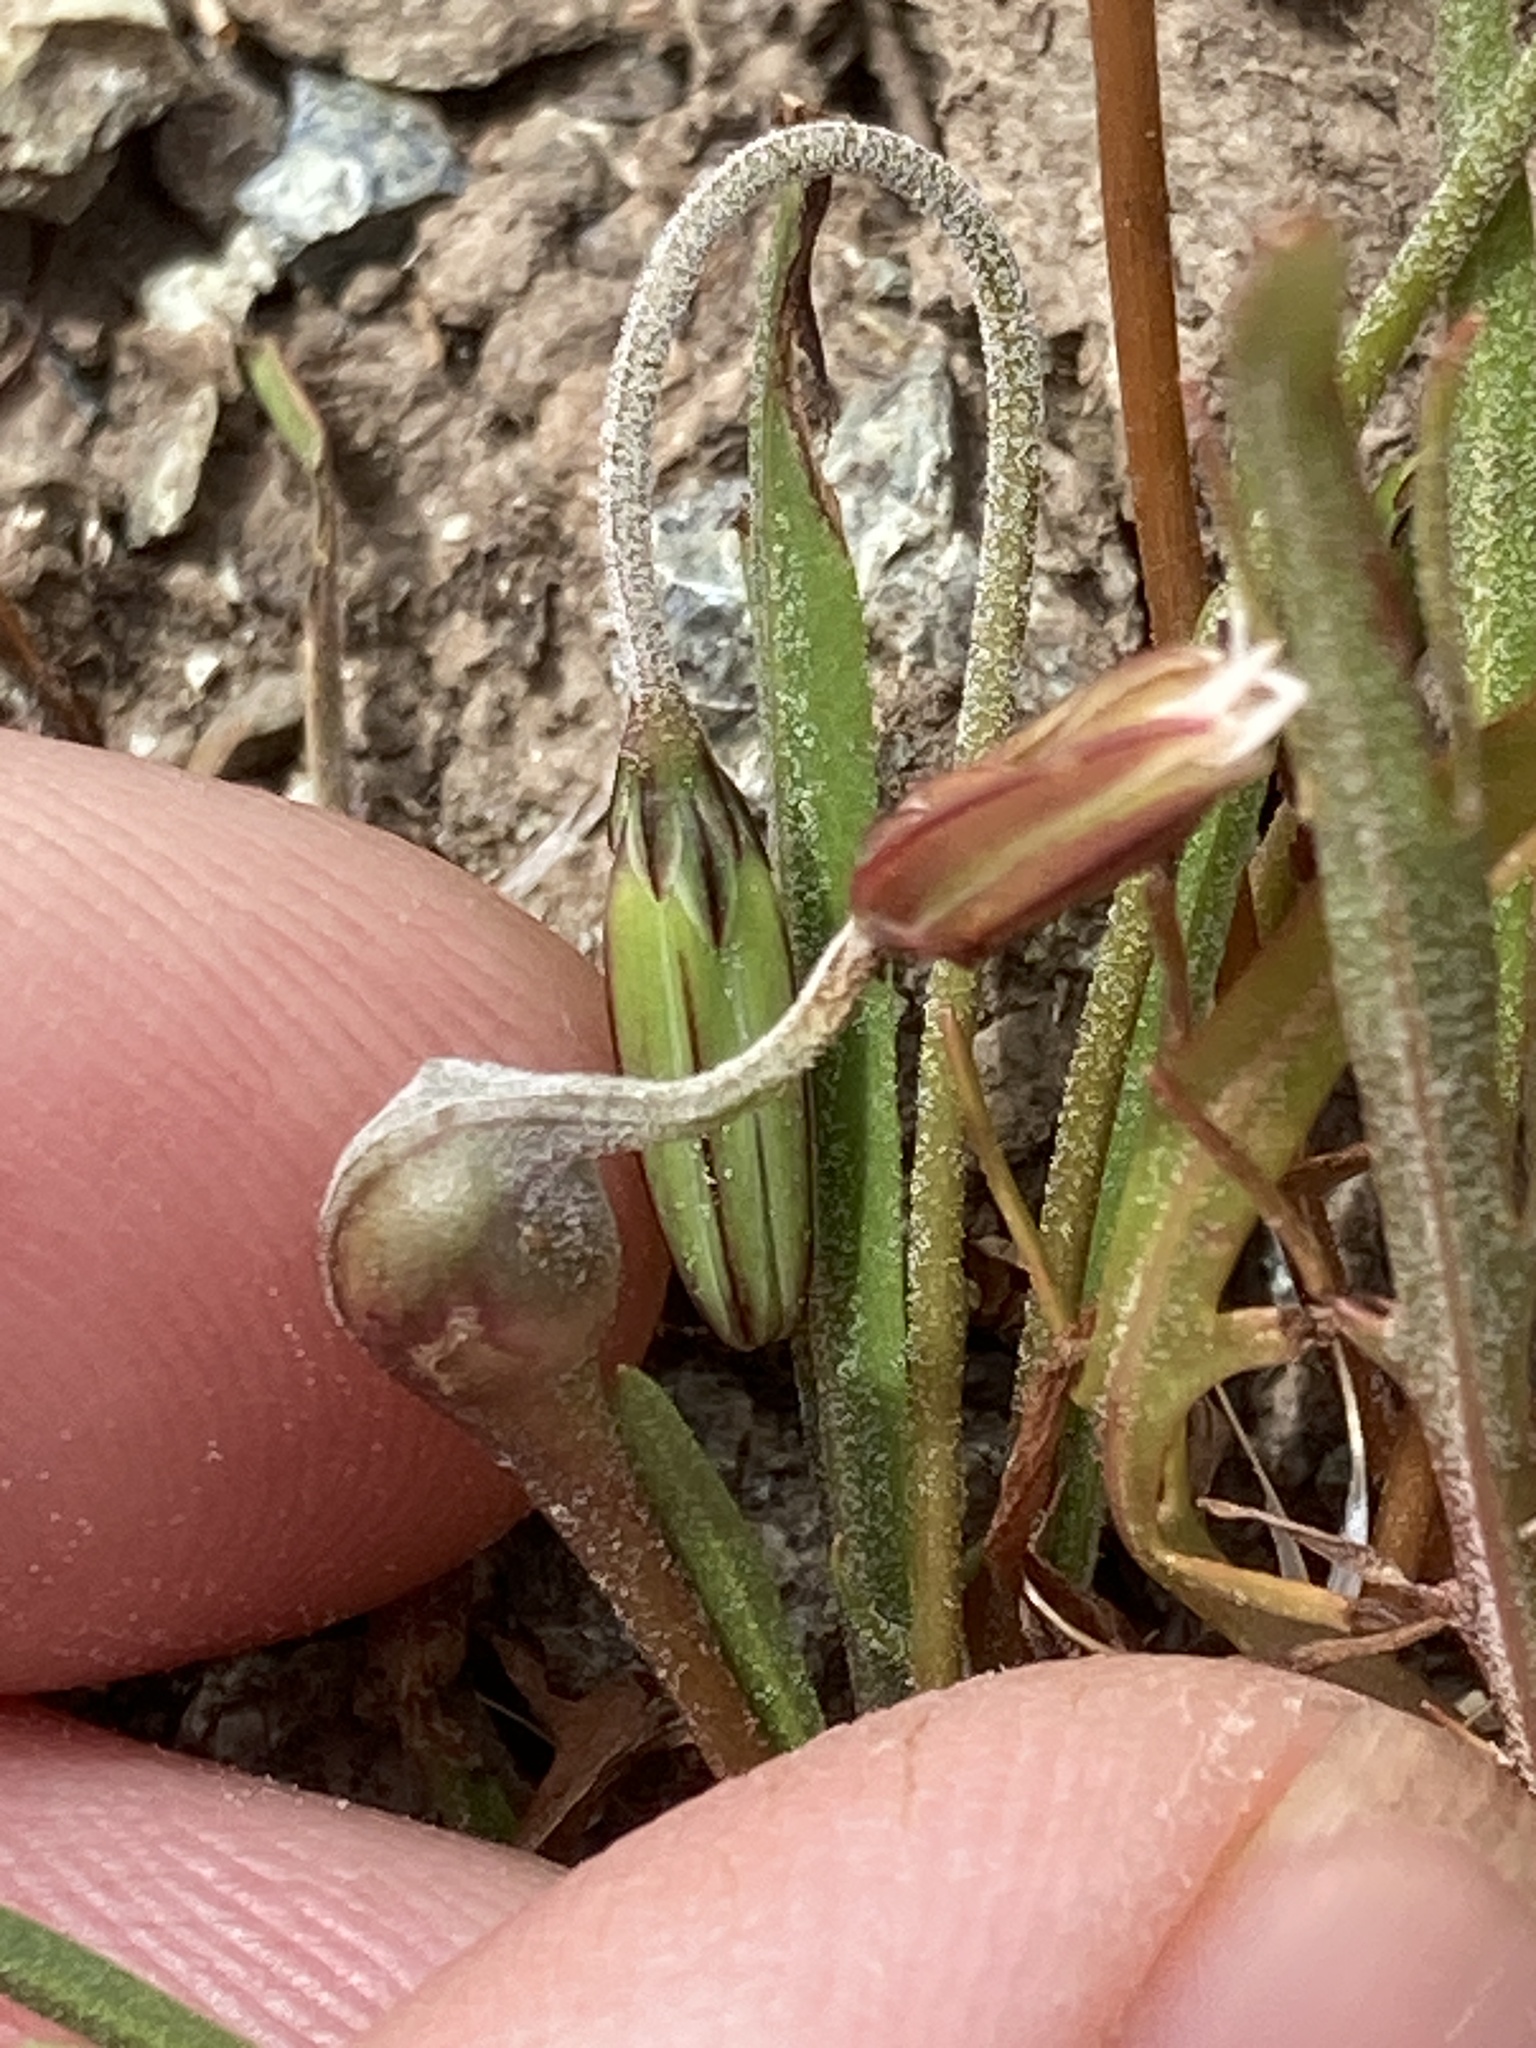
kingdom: Animalia
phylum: Arthropoda
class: Insecta
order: Hymenoptera
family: Cynipidae
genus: Antistrophus
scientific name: Antistrophus
